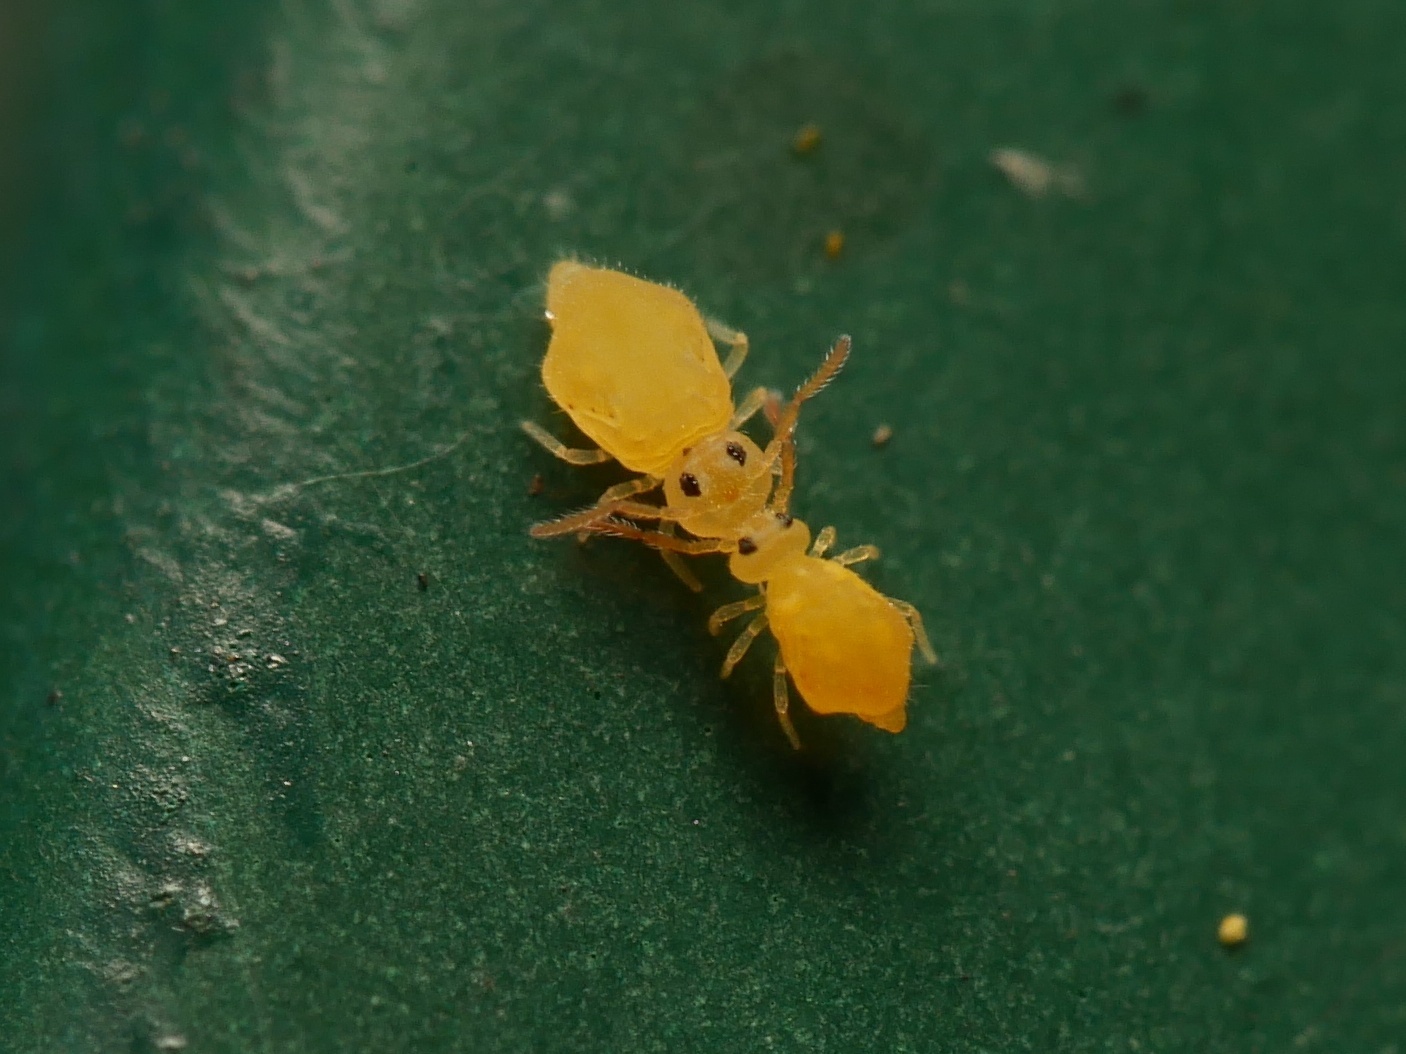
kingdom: Animalia
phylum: Arthropoda
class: Collembola
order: Symphypleona
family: Bourletiellidae
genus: Deuterosminthurus
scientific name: Deuterosminthurus pallipes
